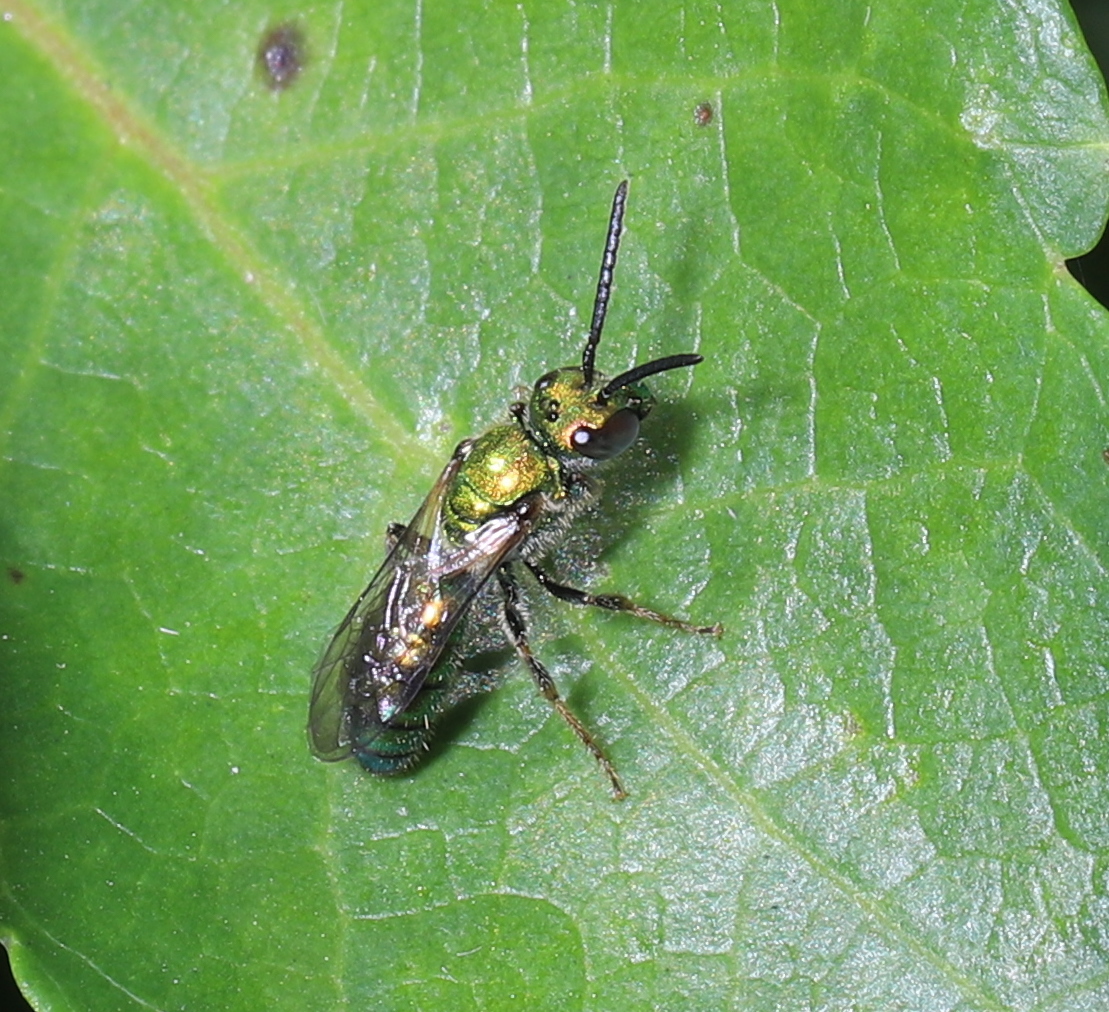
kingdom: Animalia
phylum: Arthropoda
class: Insecta
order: Hymenoptera
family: Halictidae
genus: Augochlora
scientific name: Augochlora pura
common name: Pure green sweat bee
